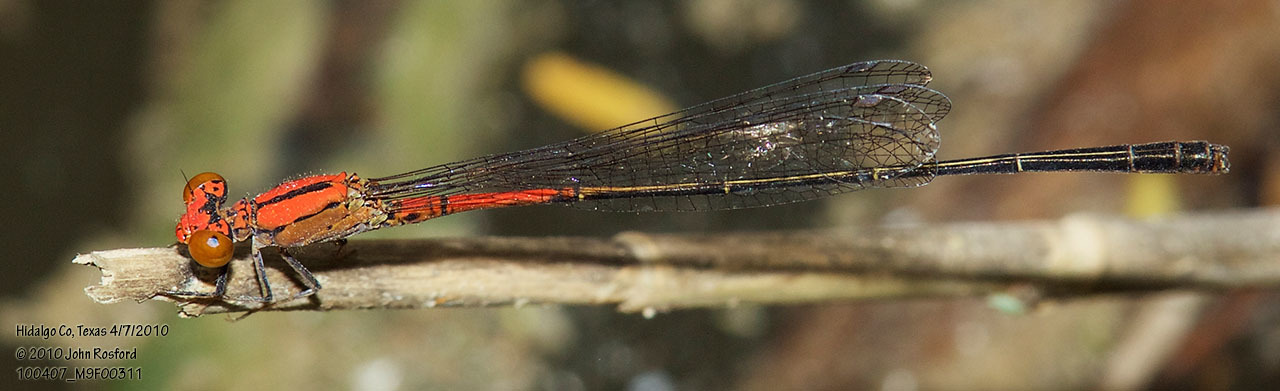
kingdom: Animalia
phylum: Arthropoda
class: Insecta
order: Odonata
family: Coenagrionidae
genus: Neoneura
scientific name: Neoneura amelia
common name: Amelia’s threadtail
